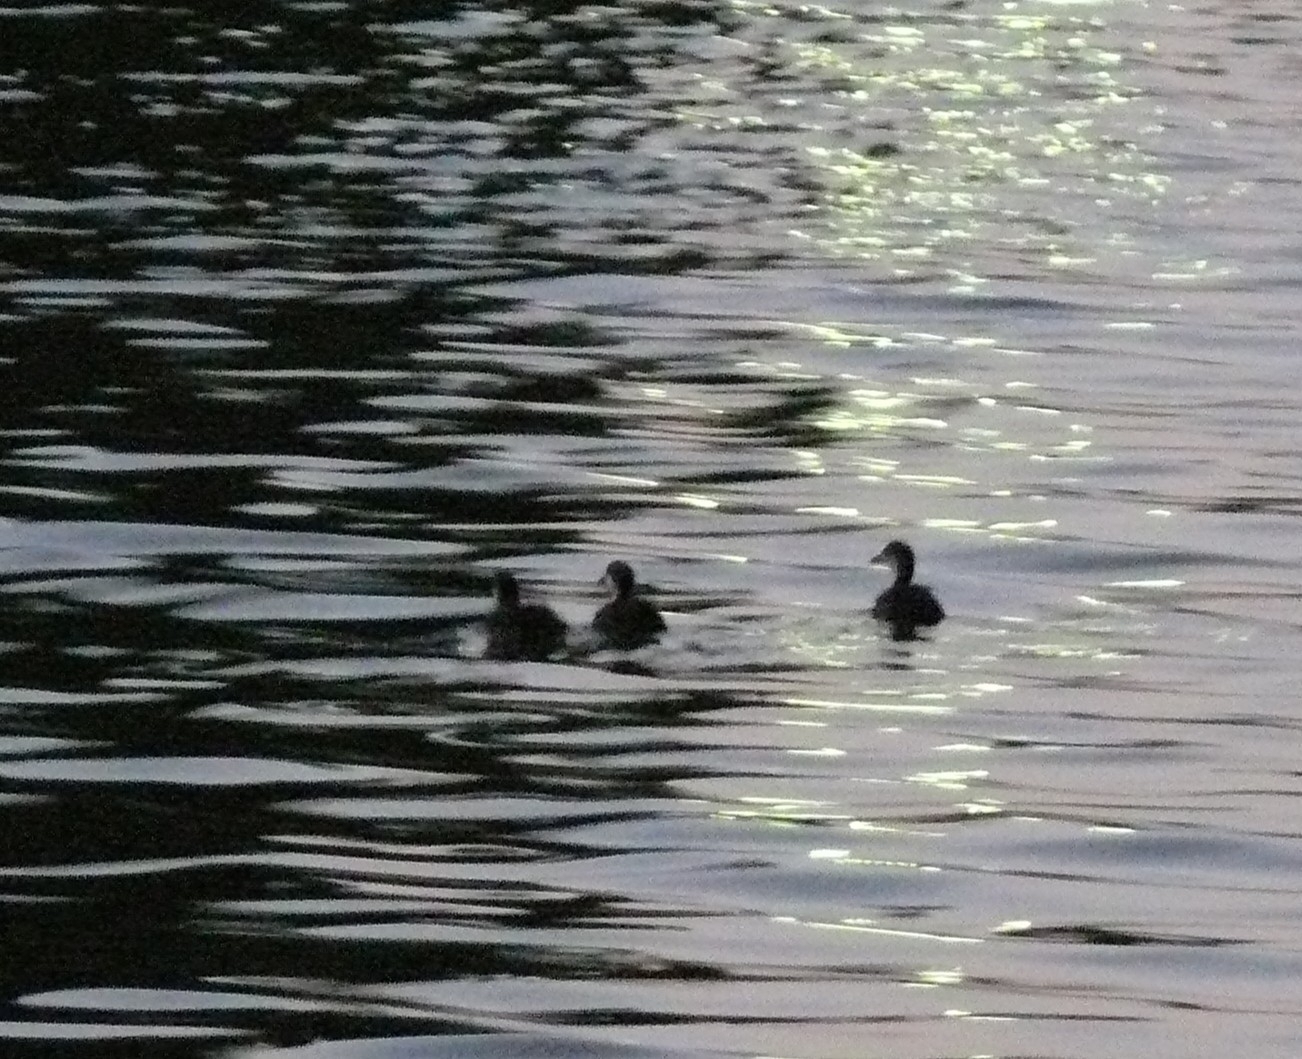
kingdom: Animalia
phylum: Chordata
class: Aves
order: Gruiformes
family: Rallidae
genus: Fulica
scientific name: Fulica atra
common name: Eurasian coot
